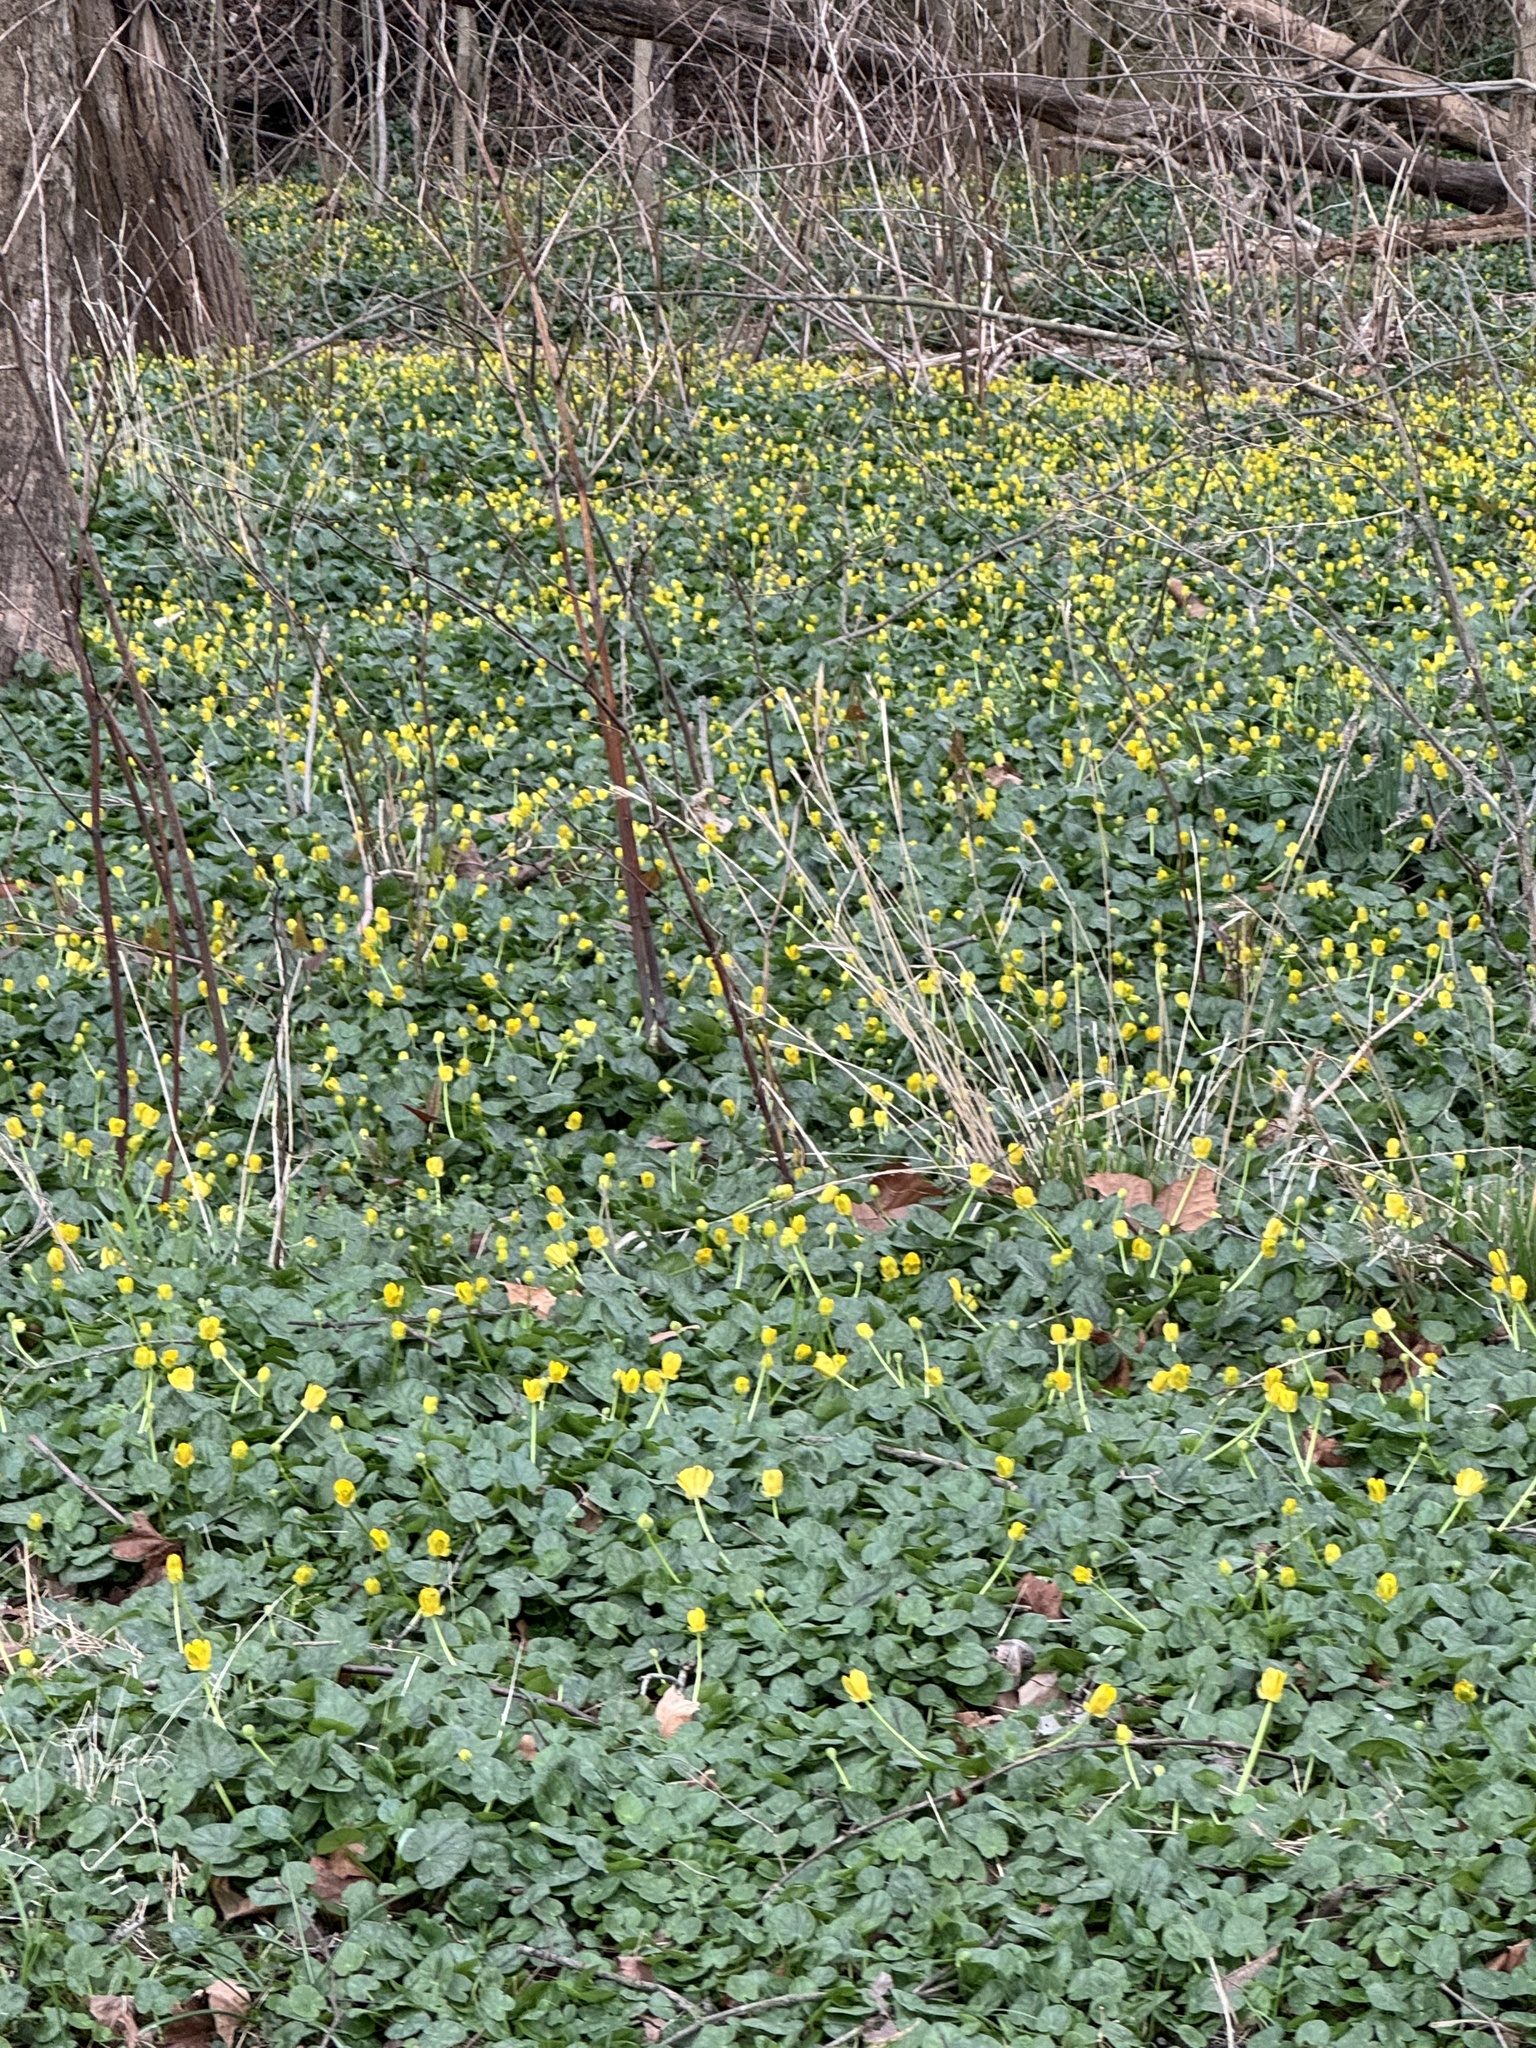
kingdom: Plantae
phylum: Tracheophyta
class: Magnoliopsida
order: Ranunculales
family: Ranunculaceae
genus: Ficaria
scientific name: Ficaria verna
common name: Lesser celandine
